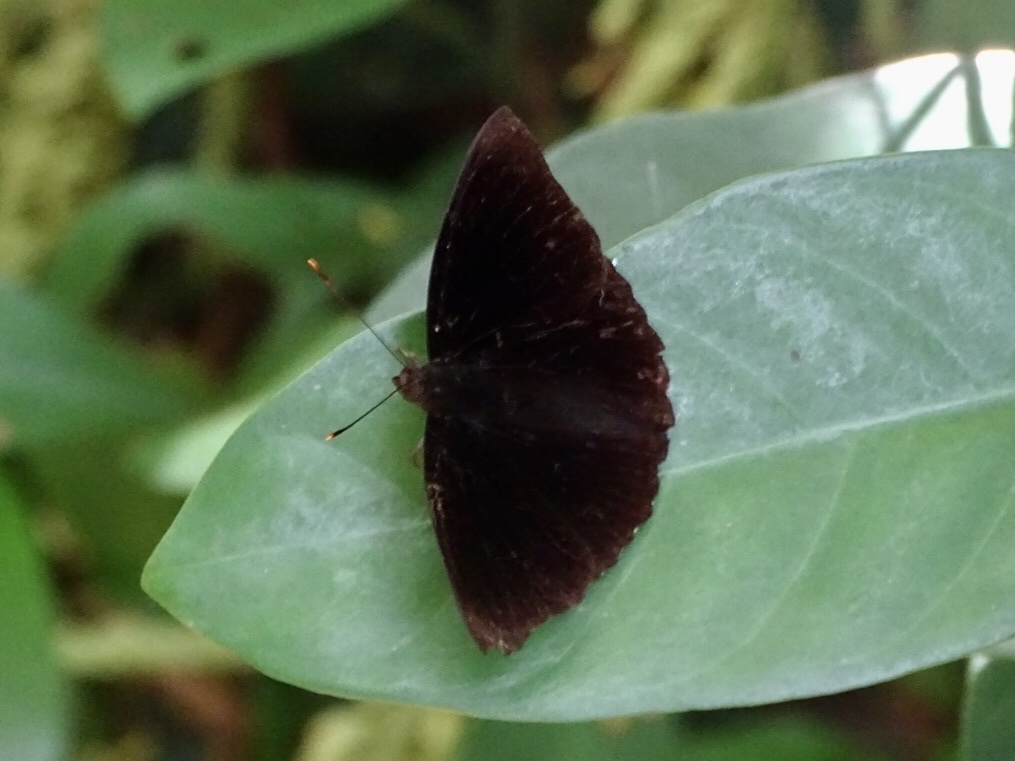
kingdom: Animalia
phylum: Arthropoda
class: Insecta
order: Lepidoptera
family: Nymphalidae
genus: Apatura
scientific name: Apatura Rohana spec
